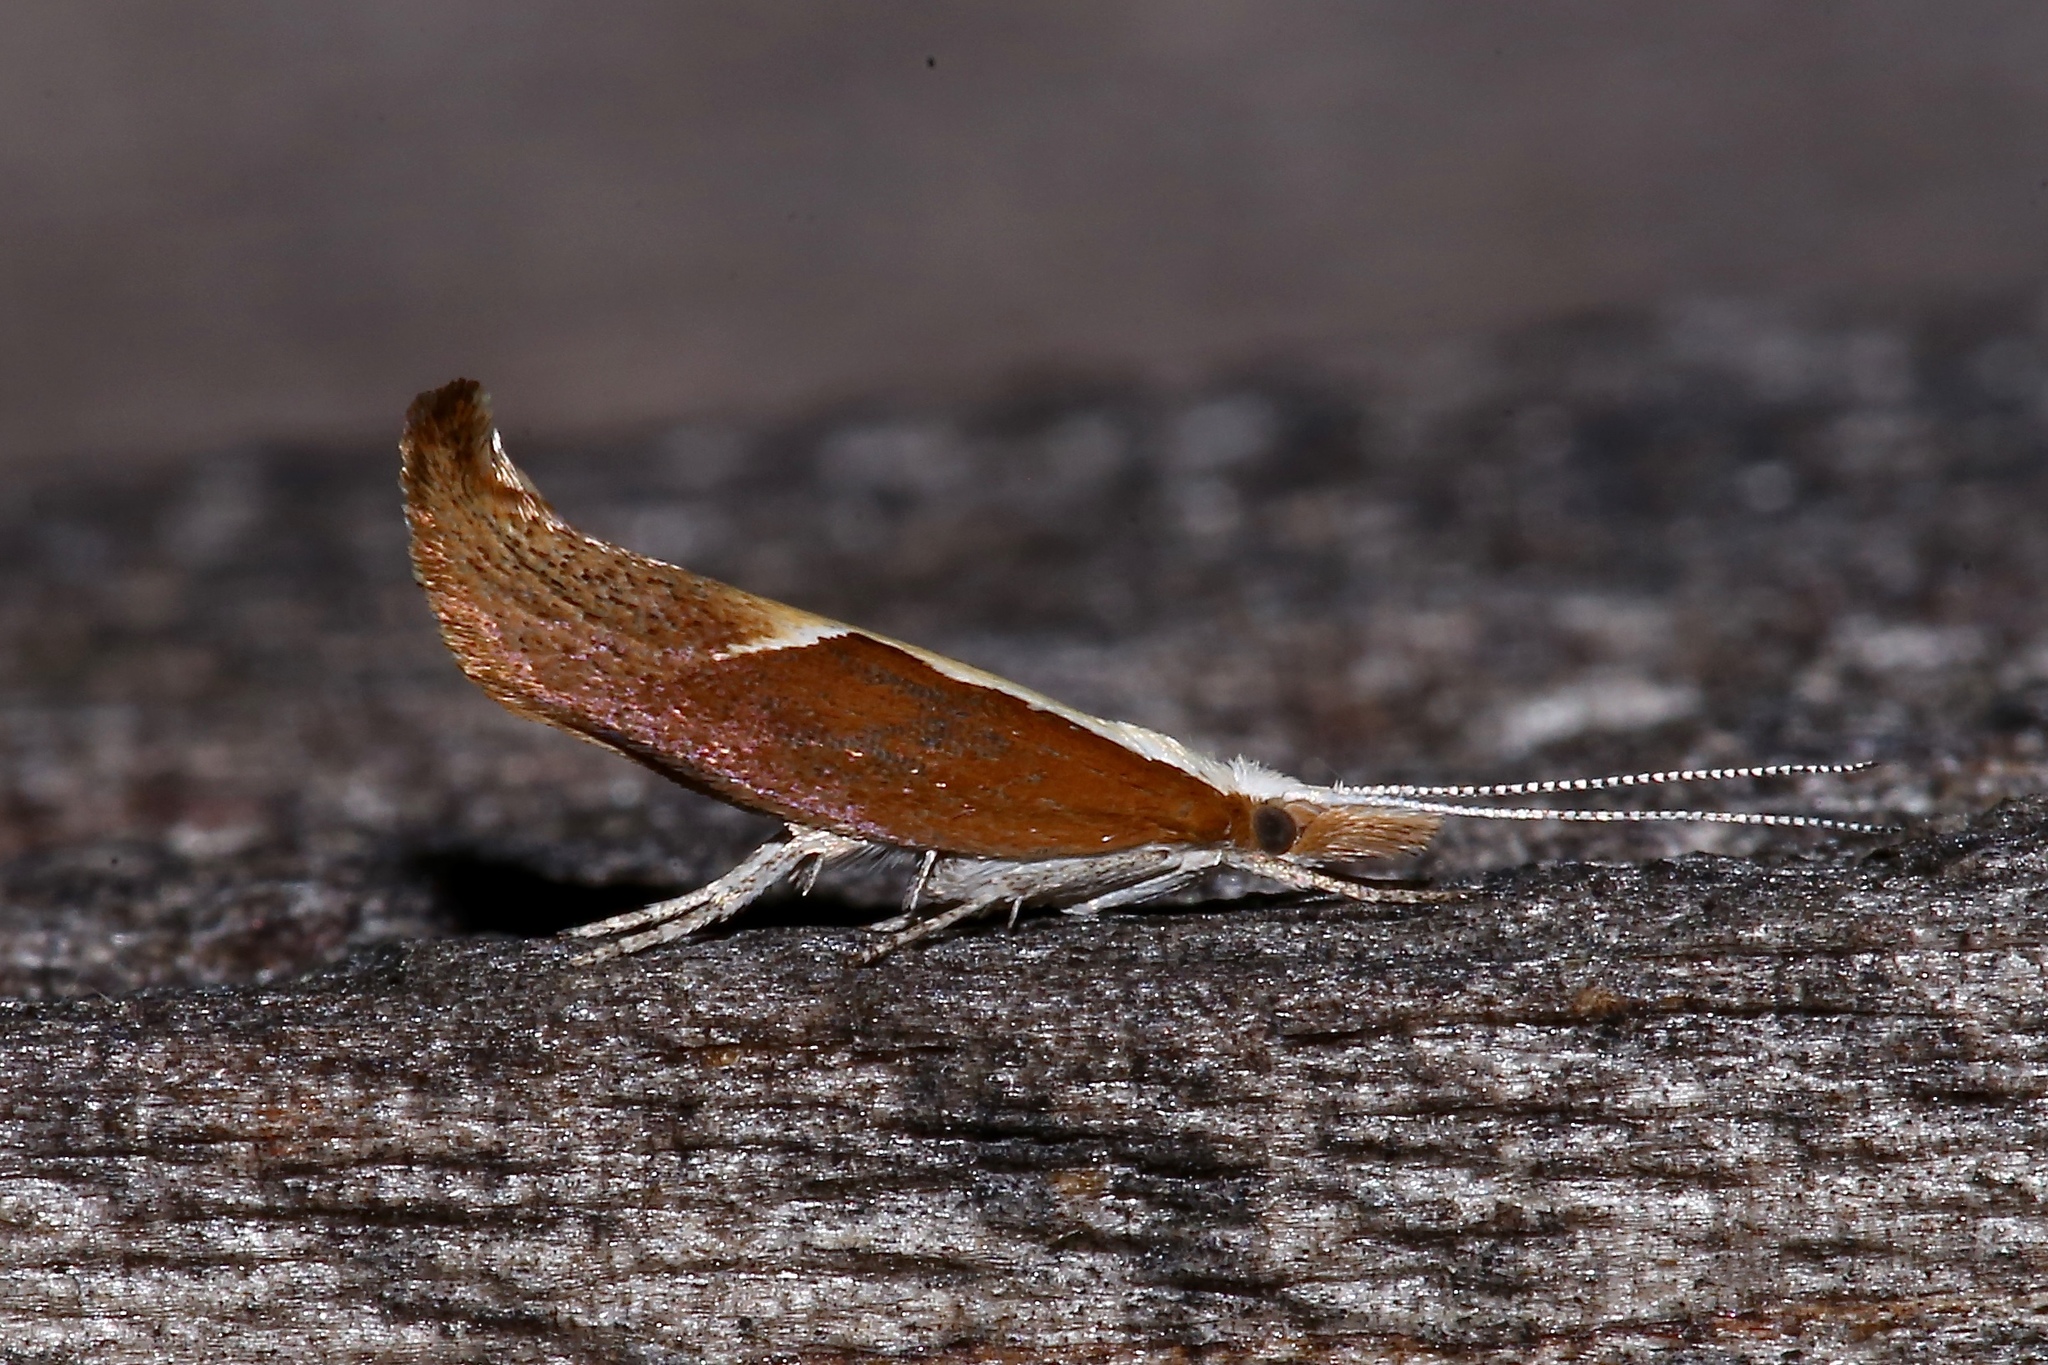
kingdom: Animalia
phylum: Arthropoda
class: Insecta
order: Lepidoptera
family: Ypsolophidae
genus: Ypsolopha
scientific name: Ypsolopha dentella
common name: Honeysuckle moth
